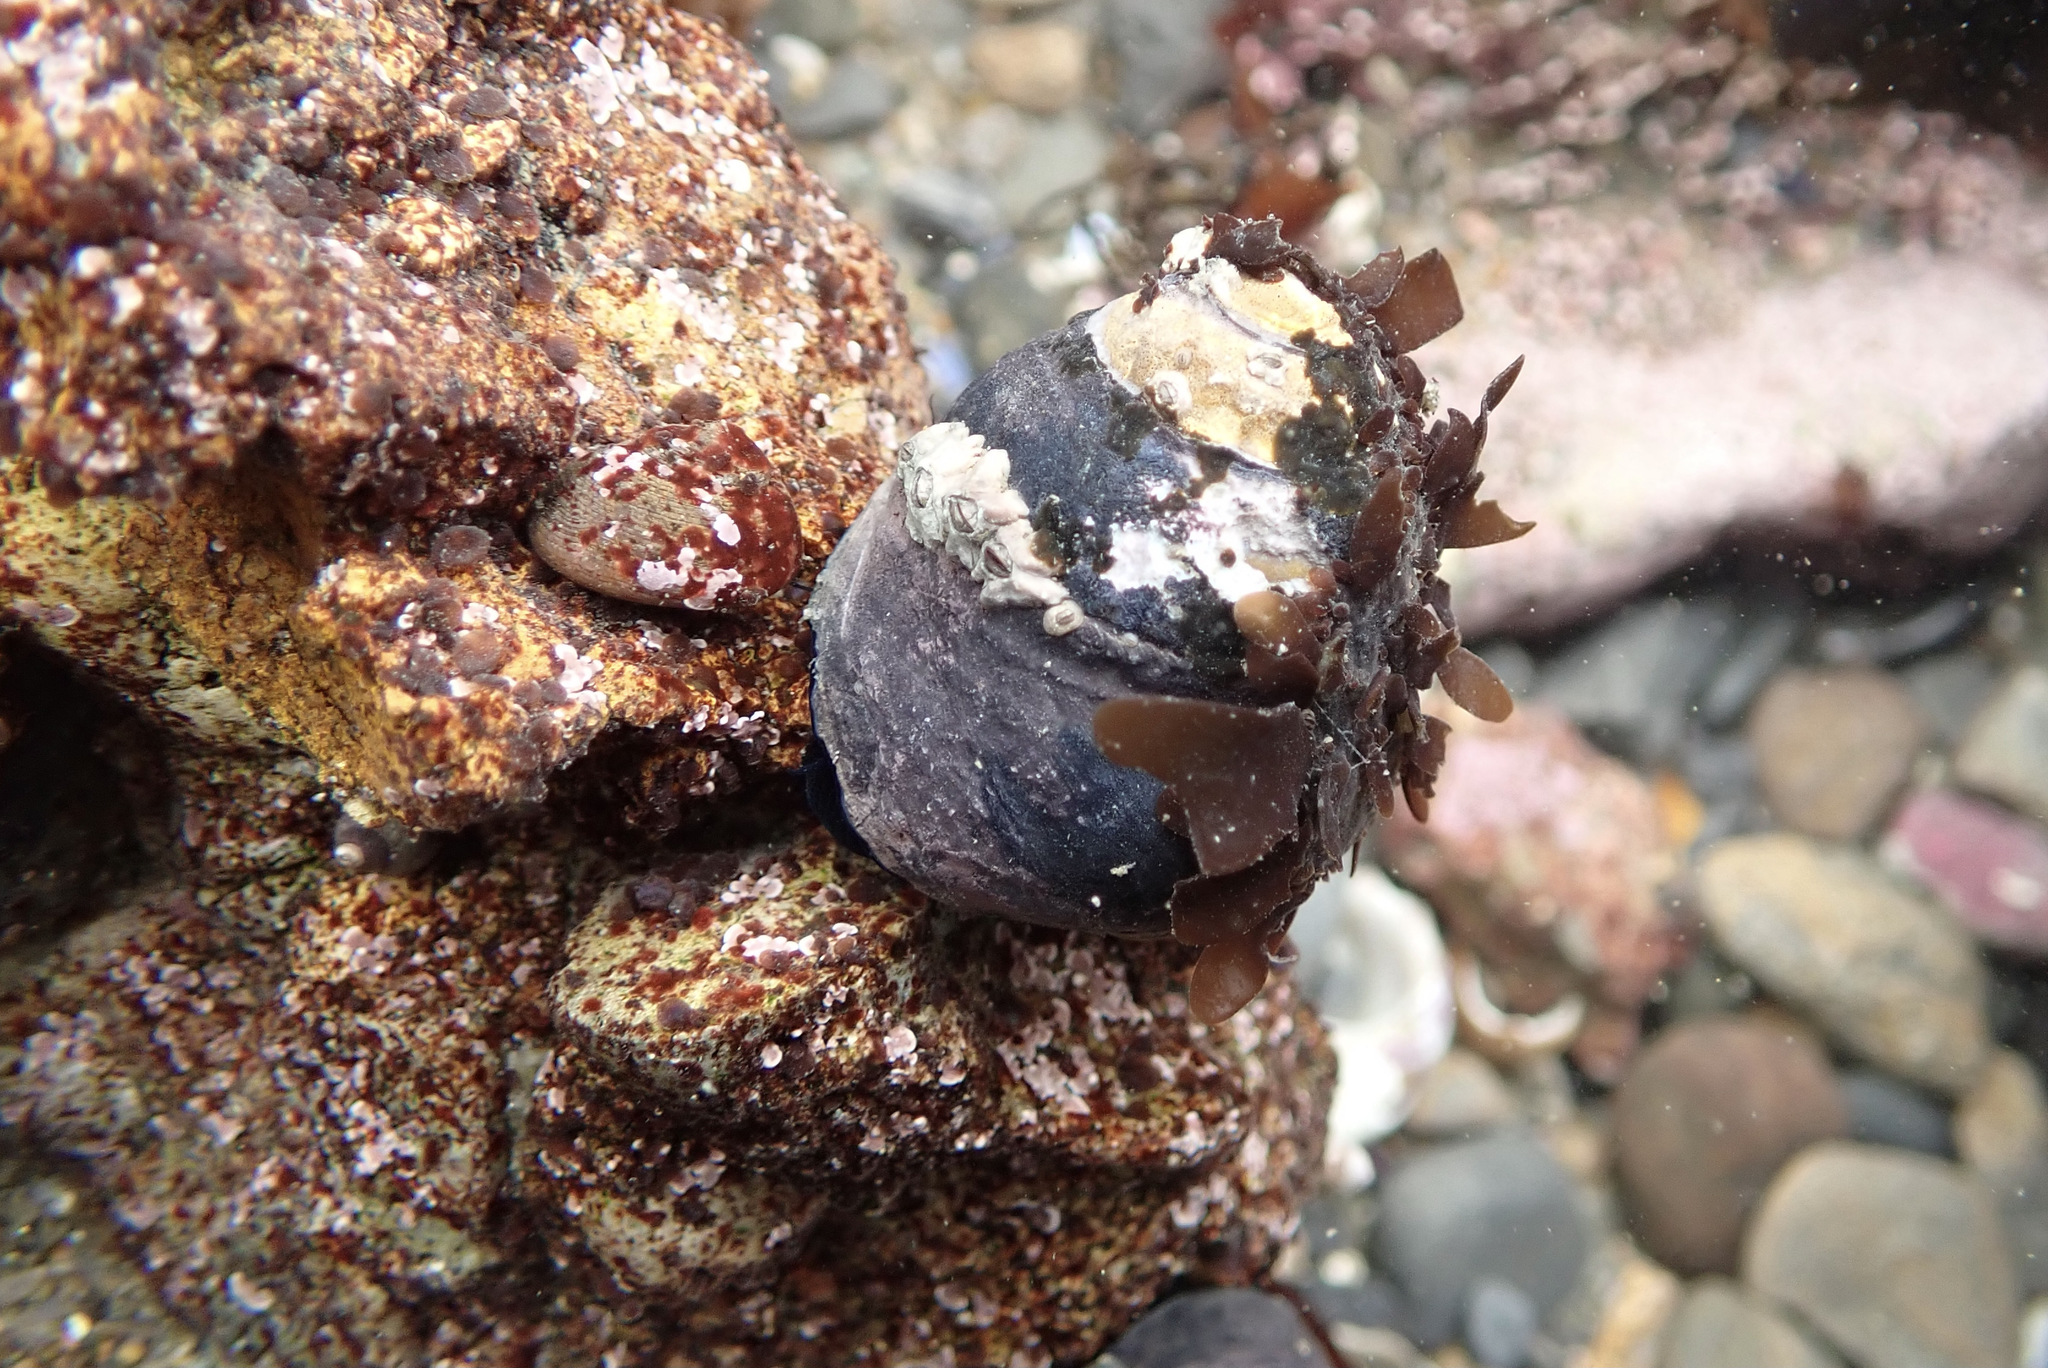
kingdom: Animalia
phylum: Mollusca
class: Gastropoda
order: Trochida
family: Tegulidae
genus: Tegula
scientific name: Tegula funebralis
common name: Black tegula
